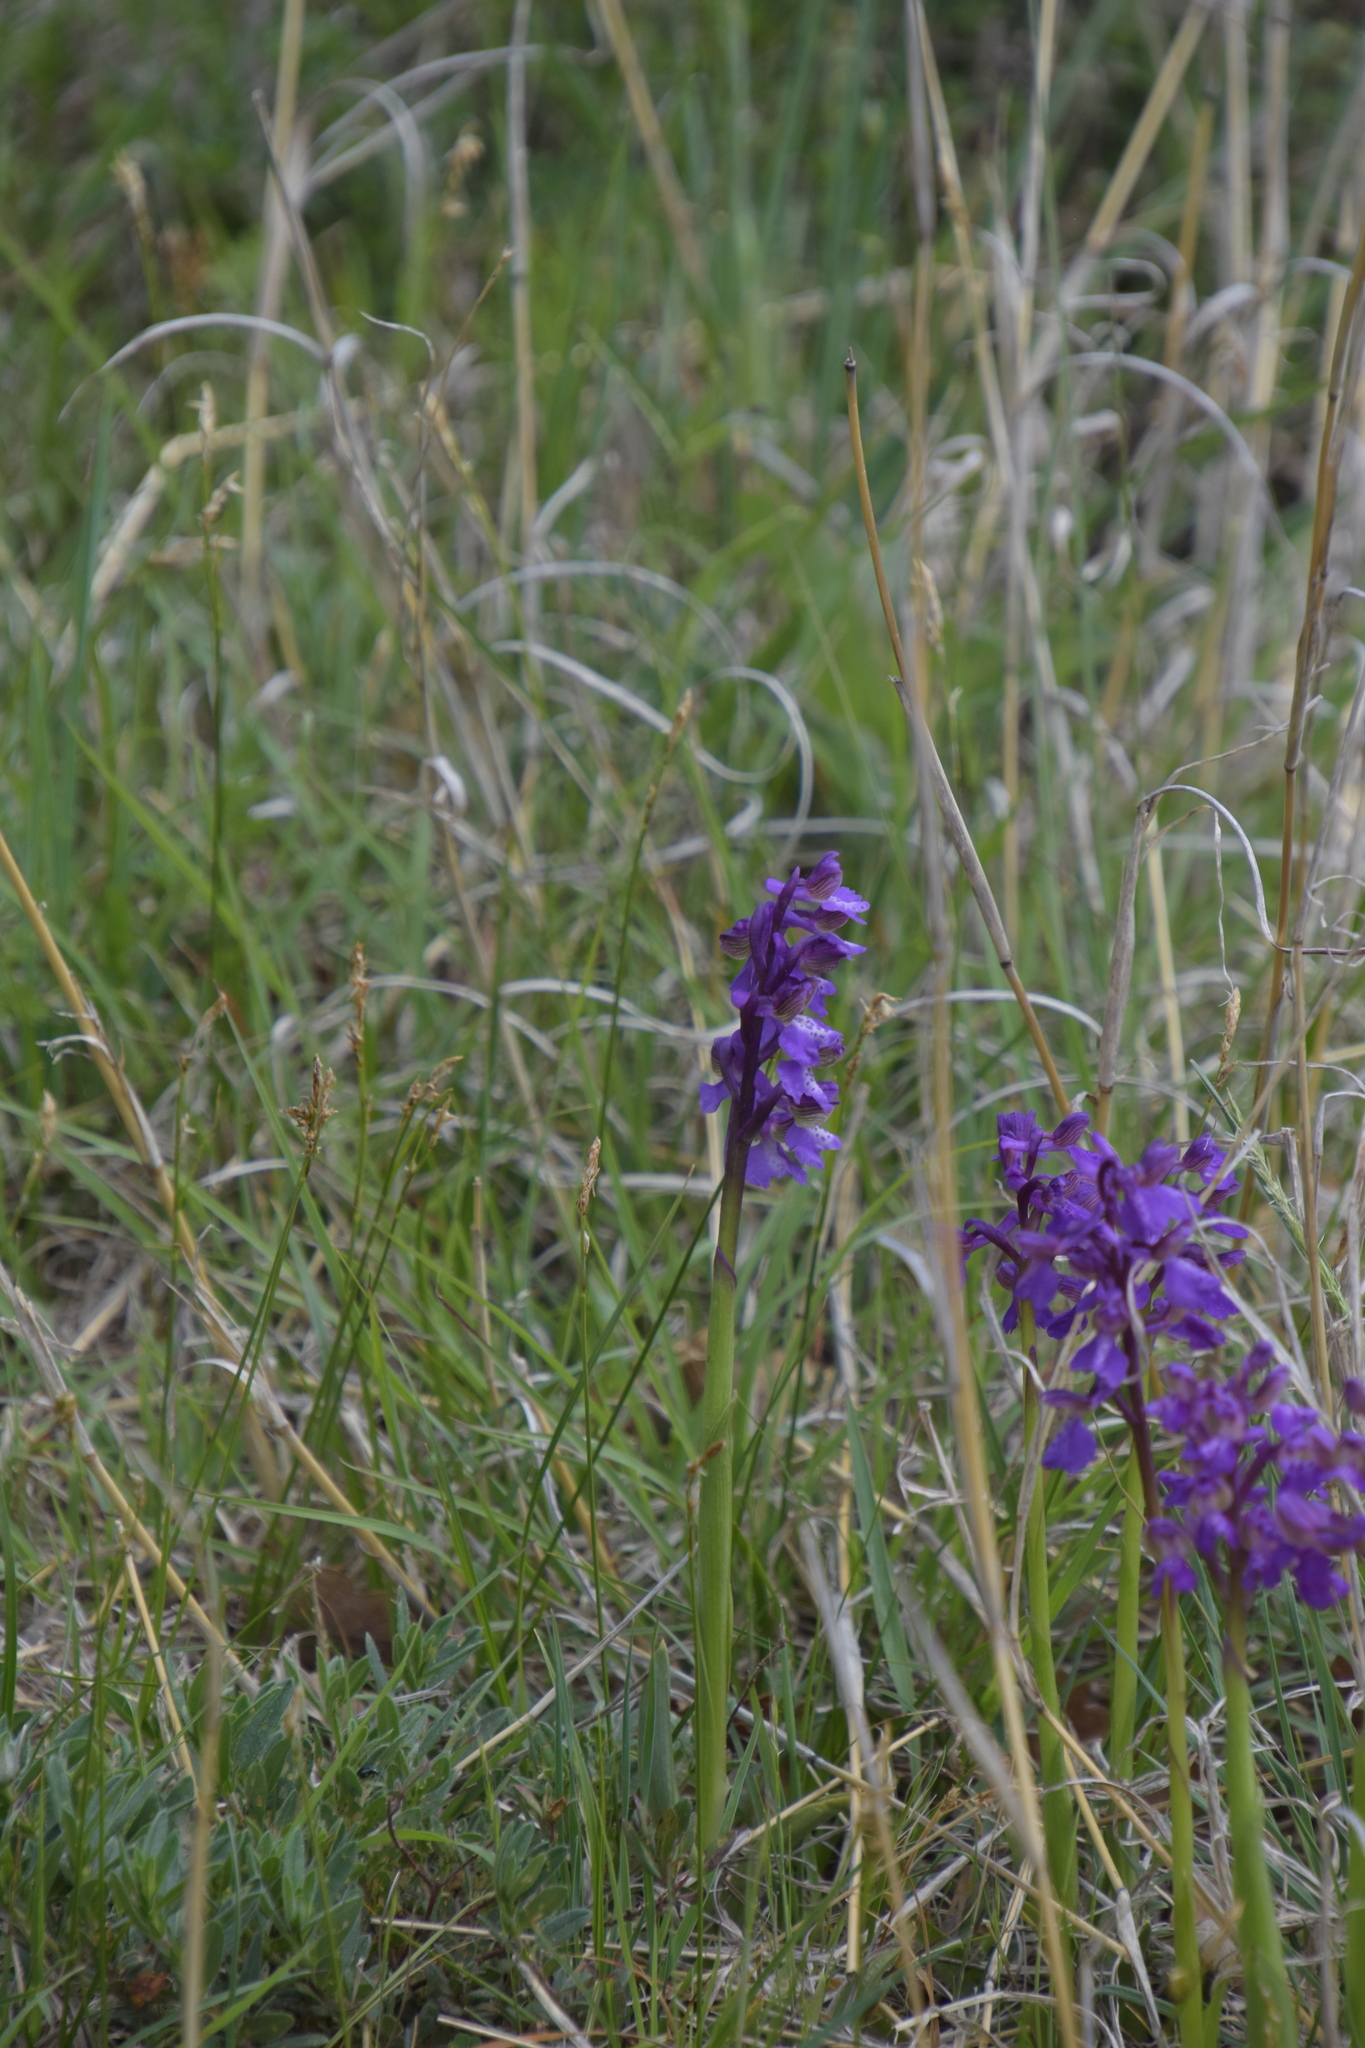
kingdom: Plantae
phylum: Tracheophyta
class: Liliopsida
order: Asparagales
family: Orchidaceae
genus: Anacamptis
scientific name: Anacamptis morio
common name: Green-winged orchid
